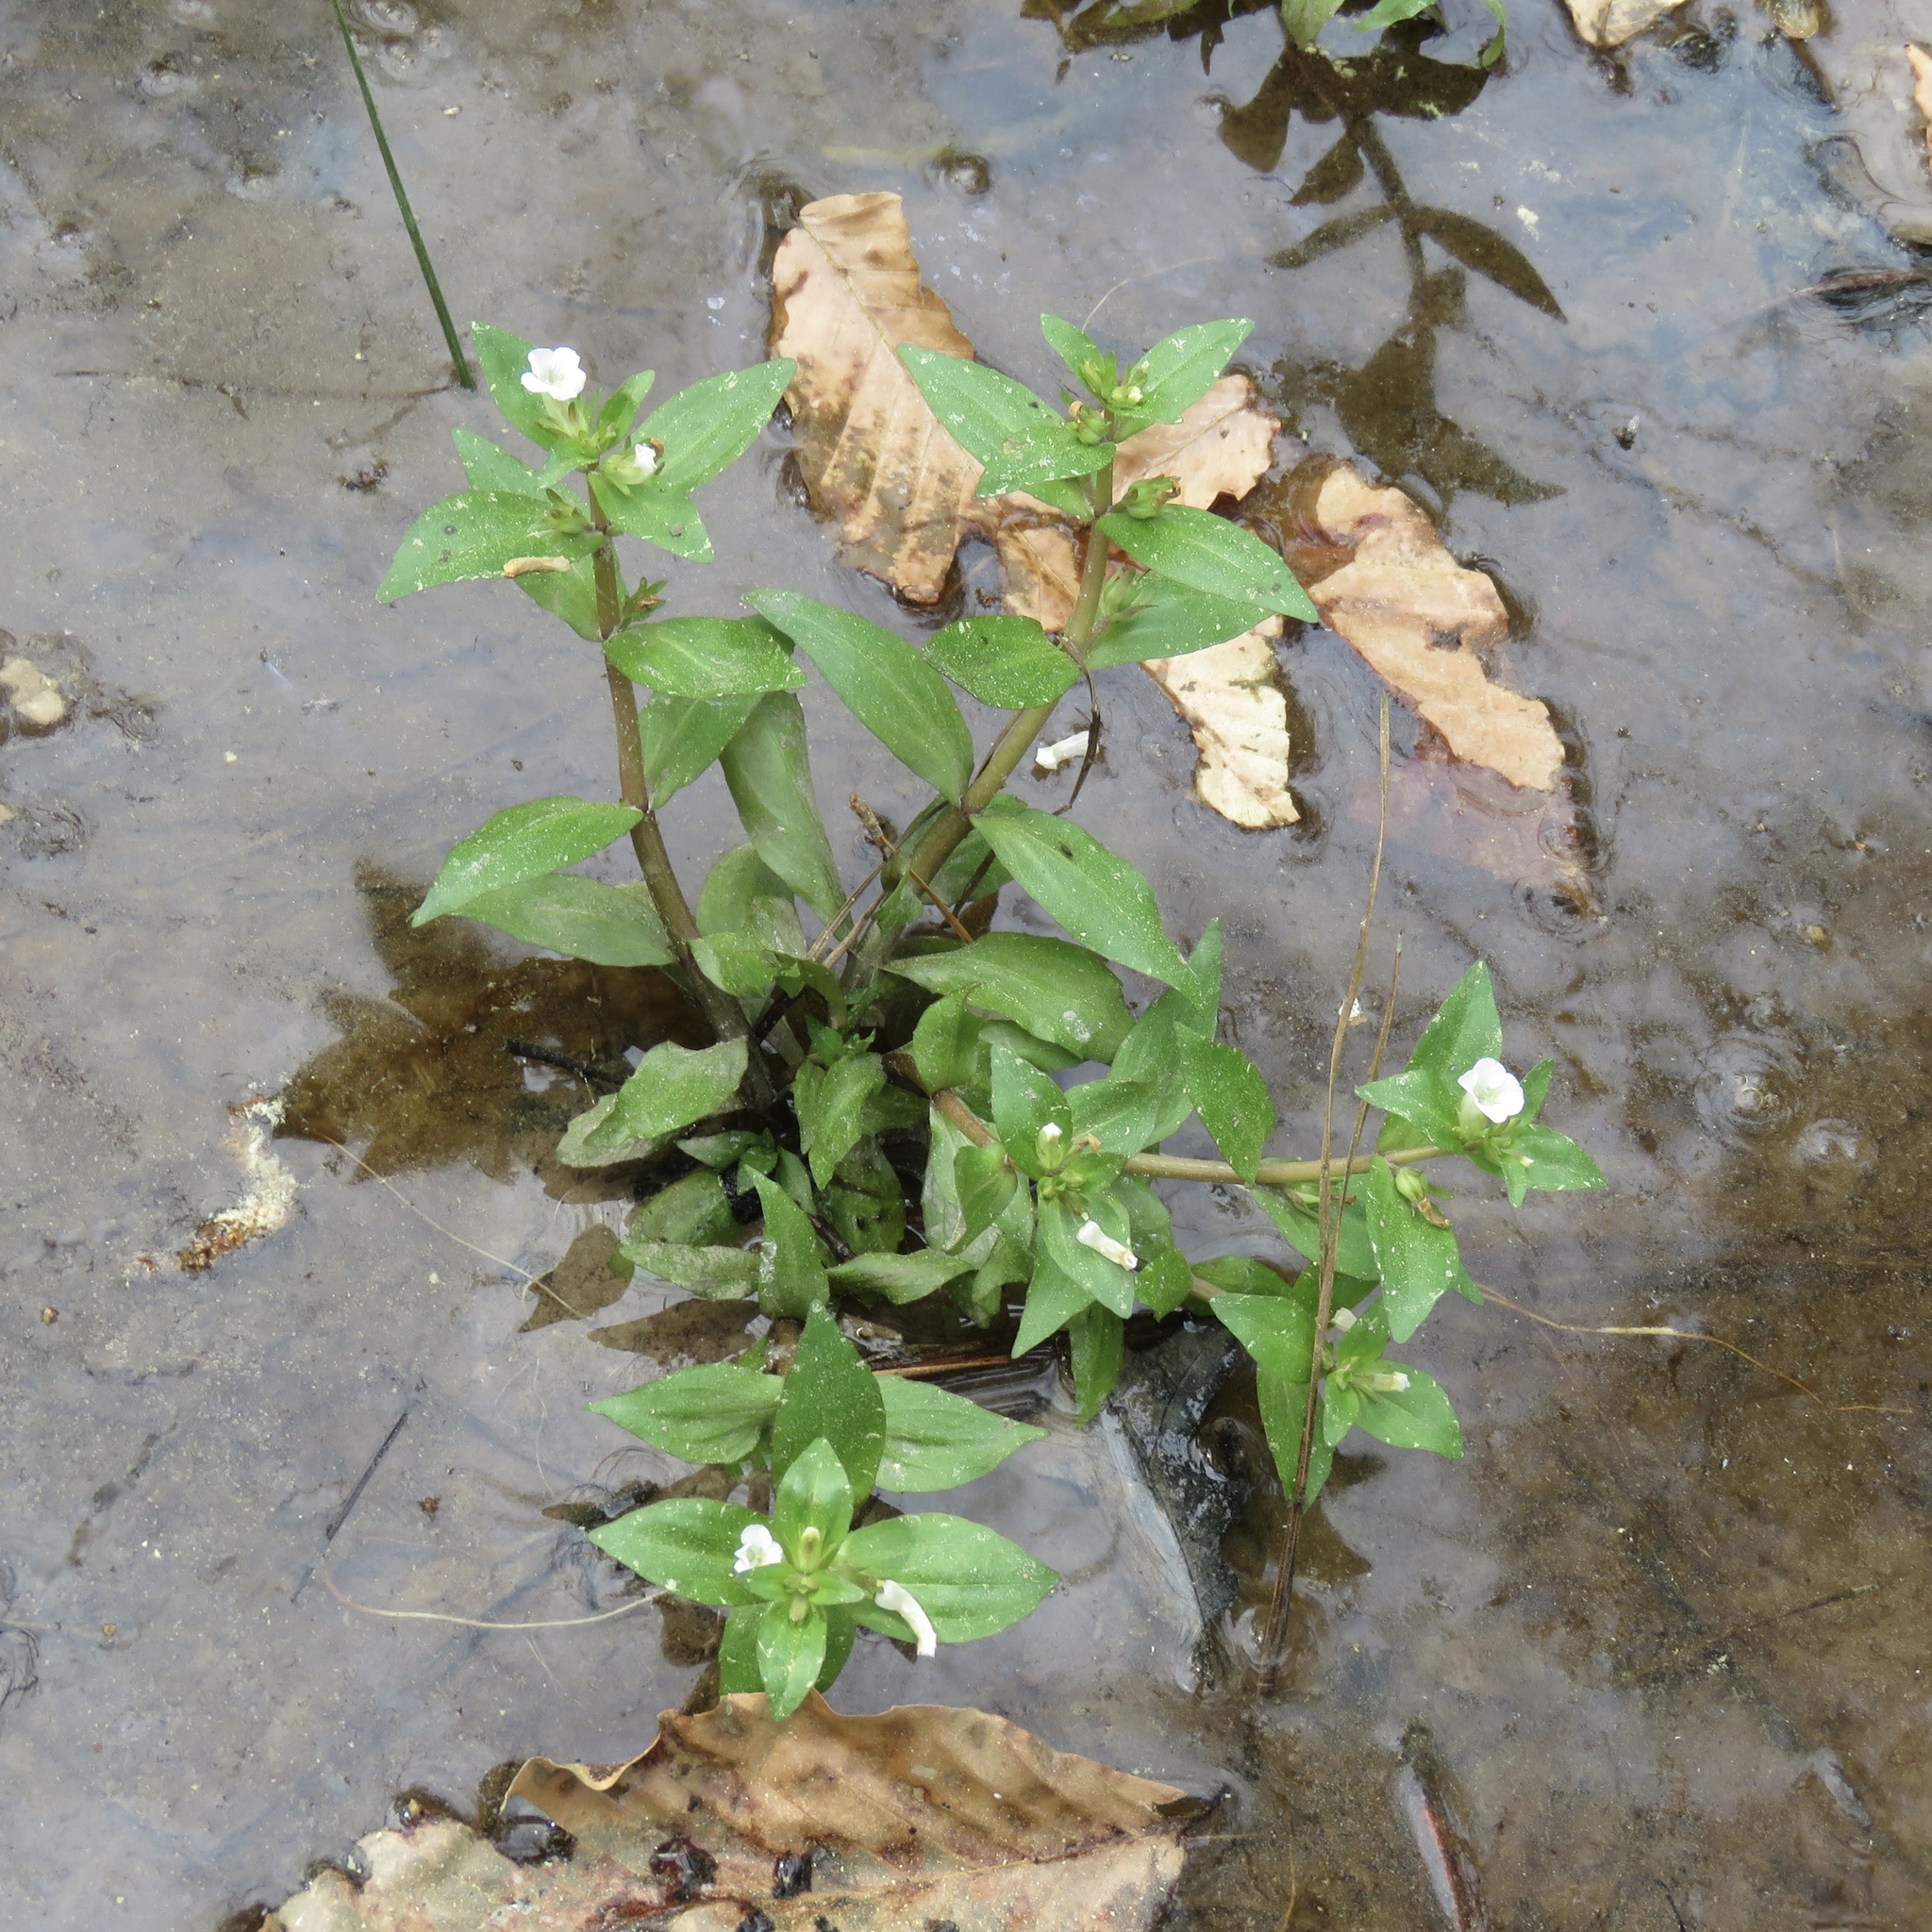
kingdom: Plantae
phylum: Tracheophyta
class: Magnoliopsida
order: Lamiales
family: Plantaginaceae
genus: Gratiola
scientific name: Gratiola virginiana
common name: Roundfruit hedgehyssop
